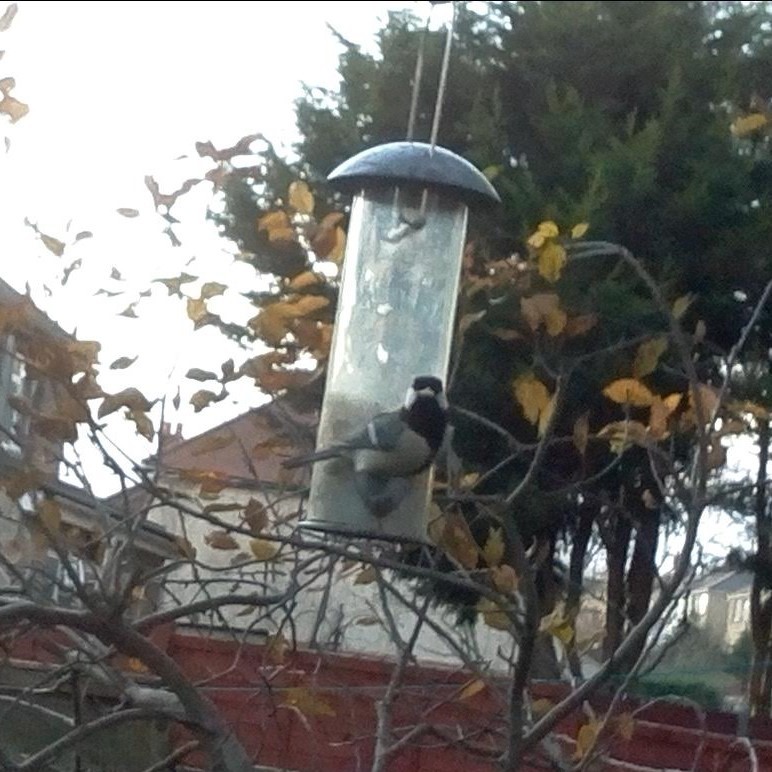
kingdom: Animalia
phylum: Chordata
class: Aves
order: Passeriformes
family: Paridae
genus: Parus
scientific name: Parus major
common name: Great tit
